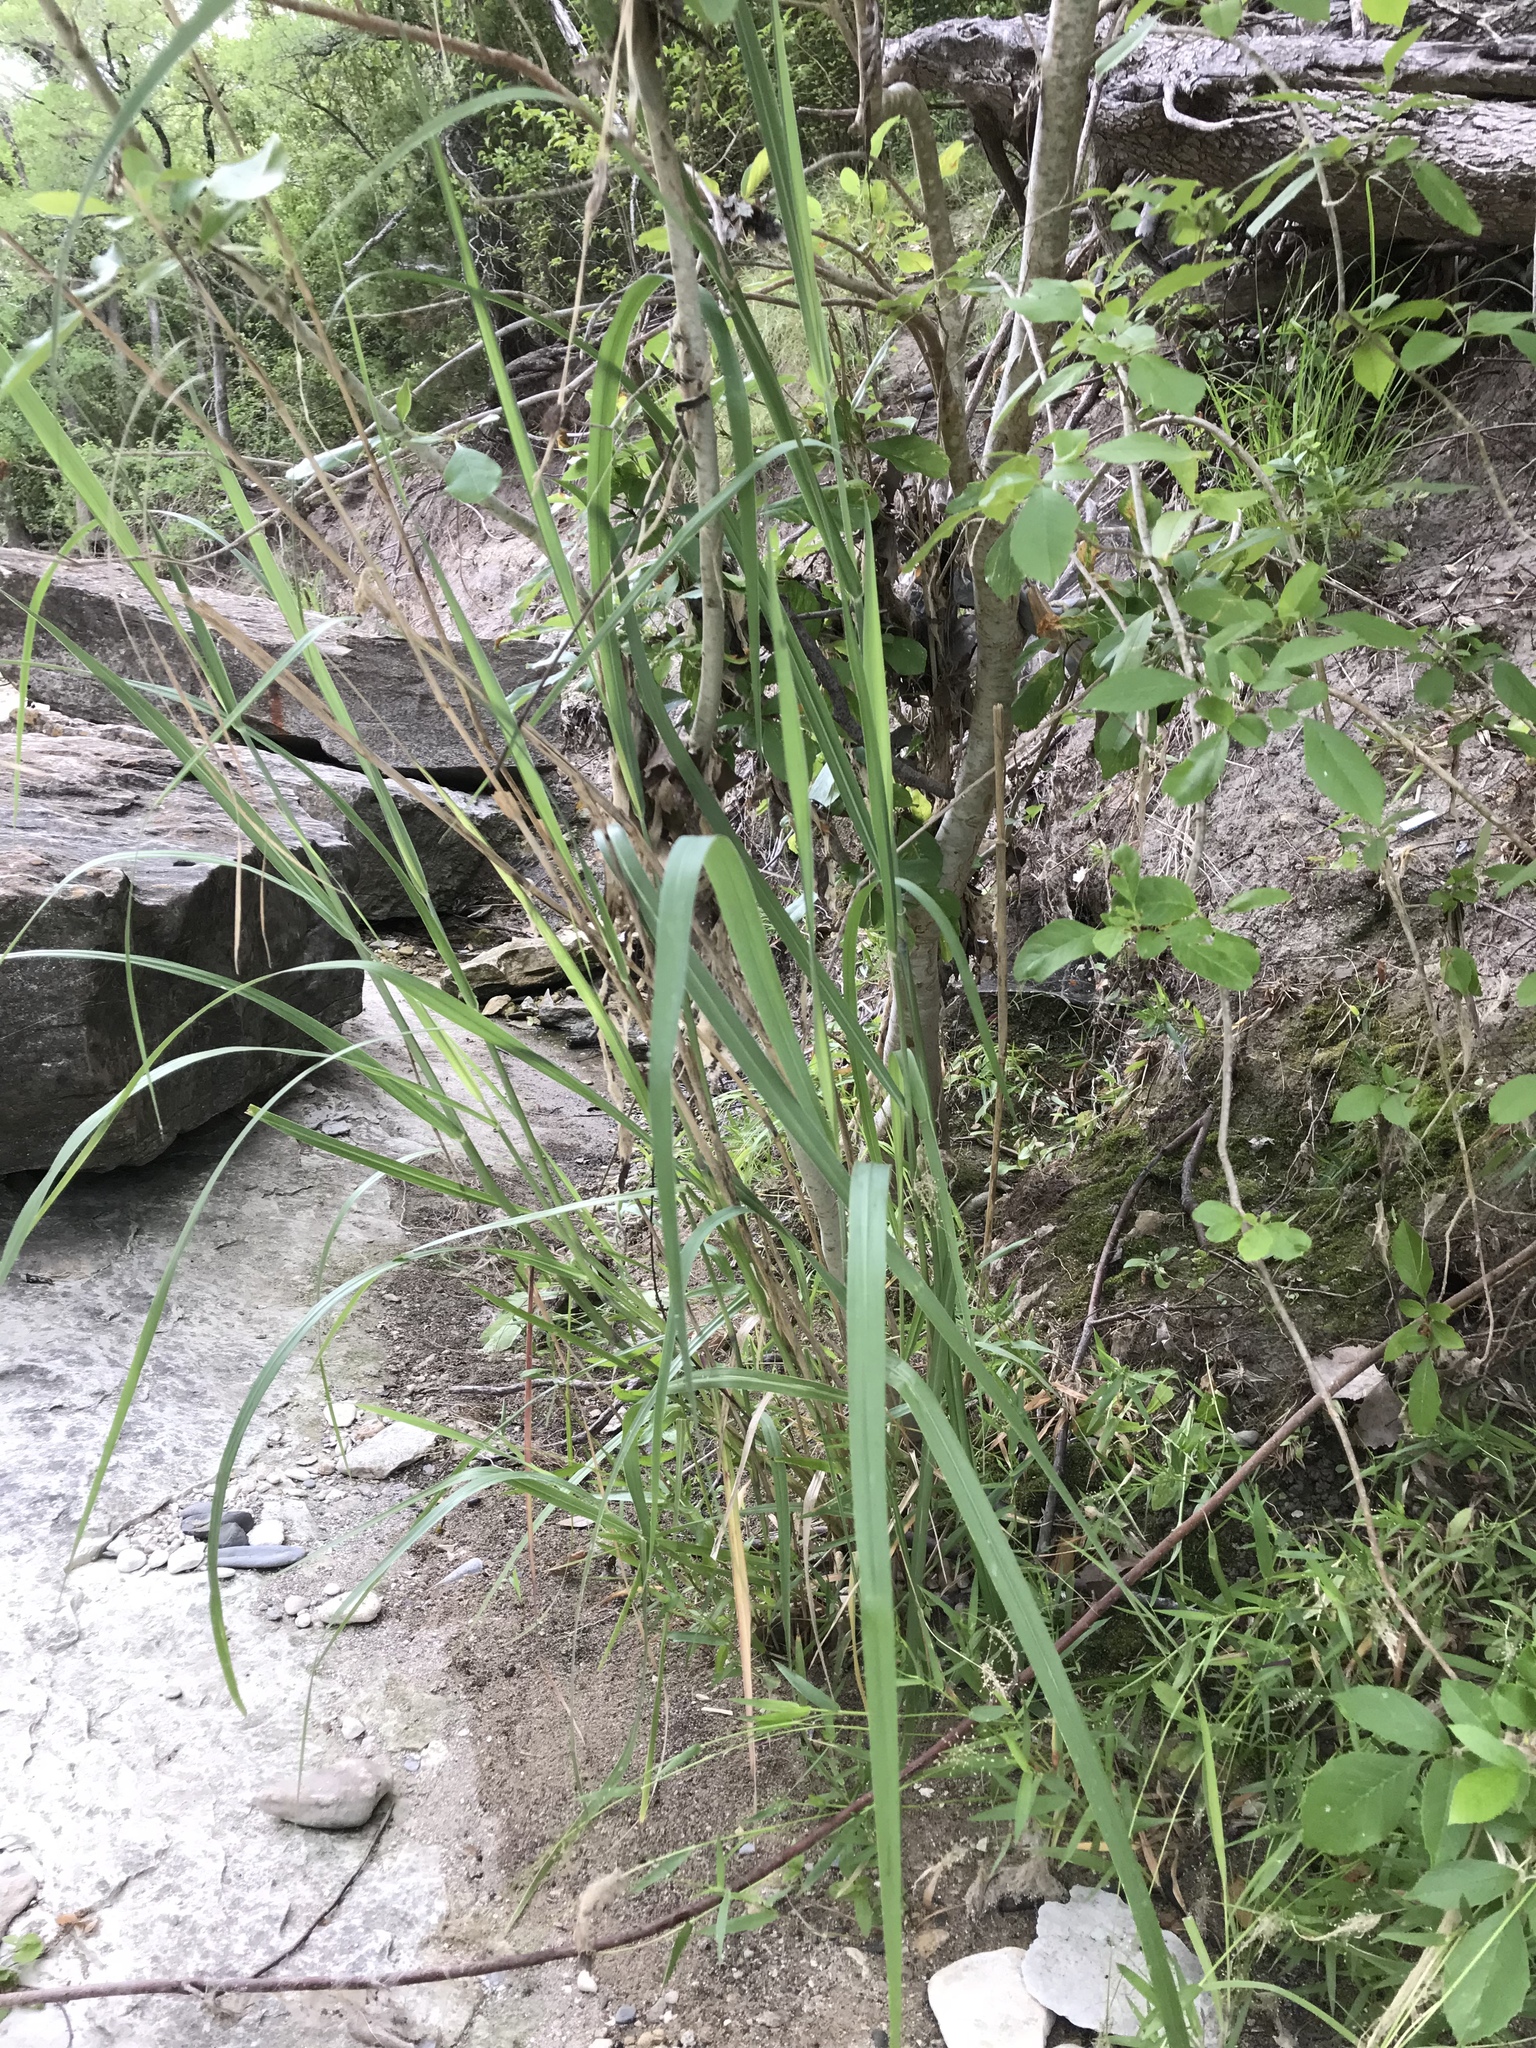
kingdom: Plantae
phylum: Tracheophyta
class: Liliopsida
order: Poales
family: Poaceae
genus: Panicum
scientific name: Panicum virgatum
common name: Switchgrass
